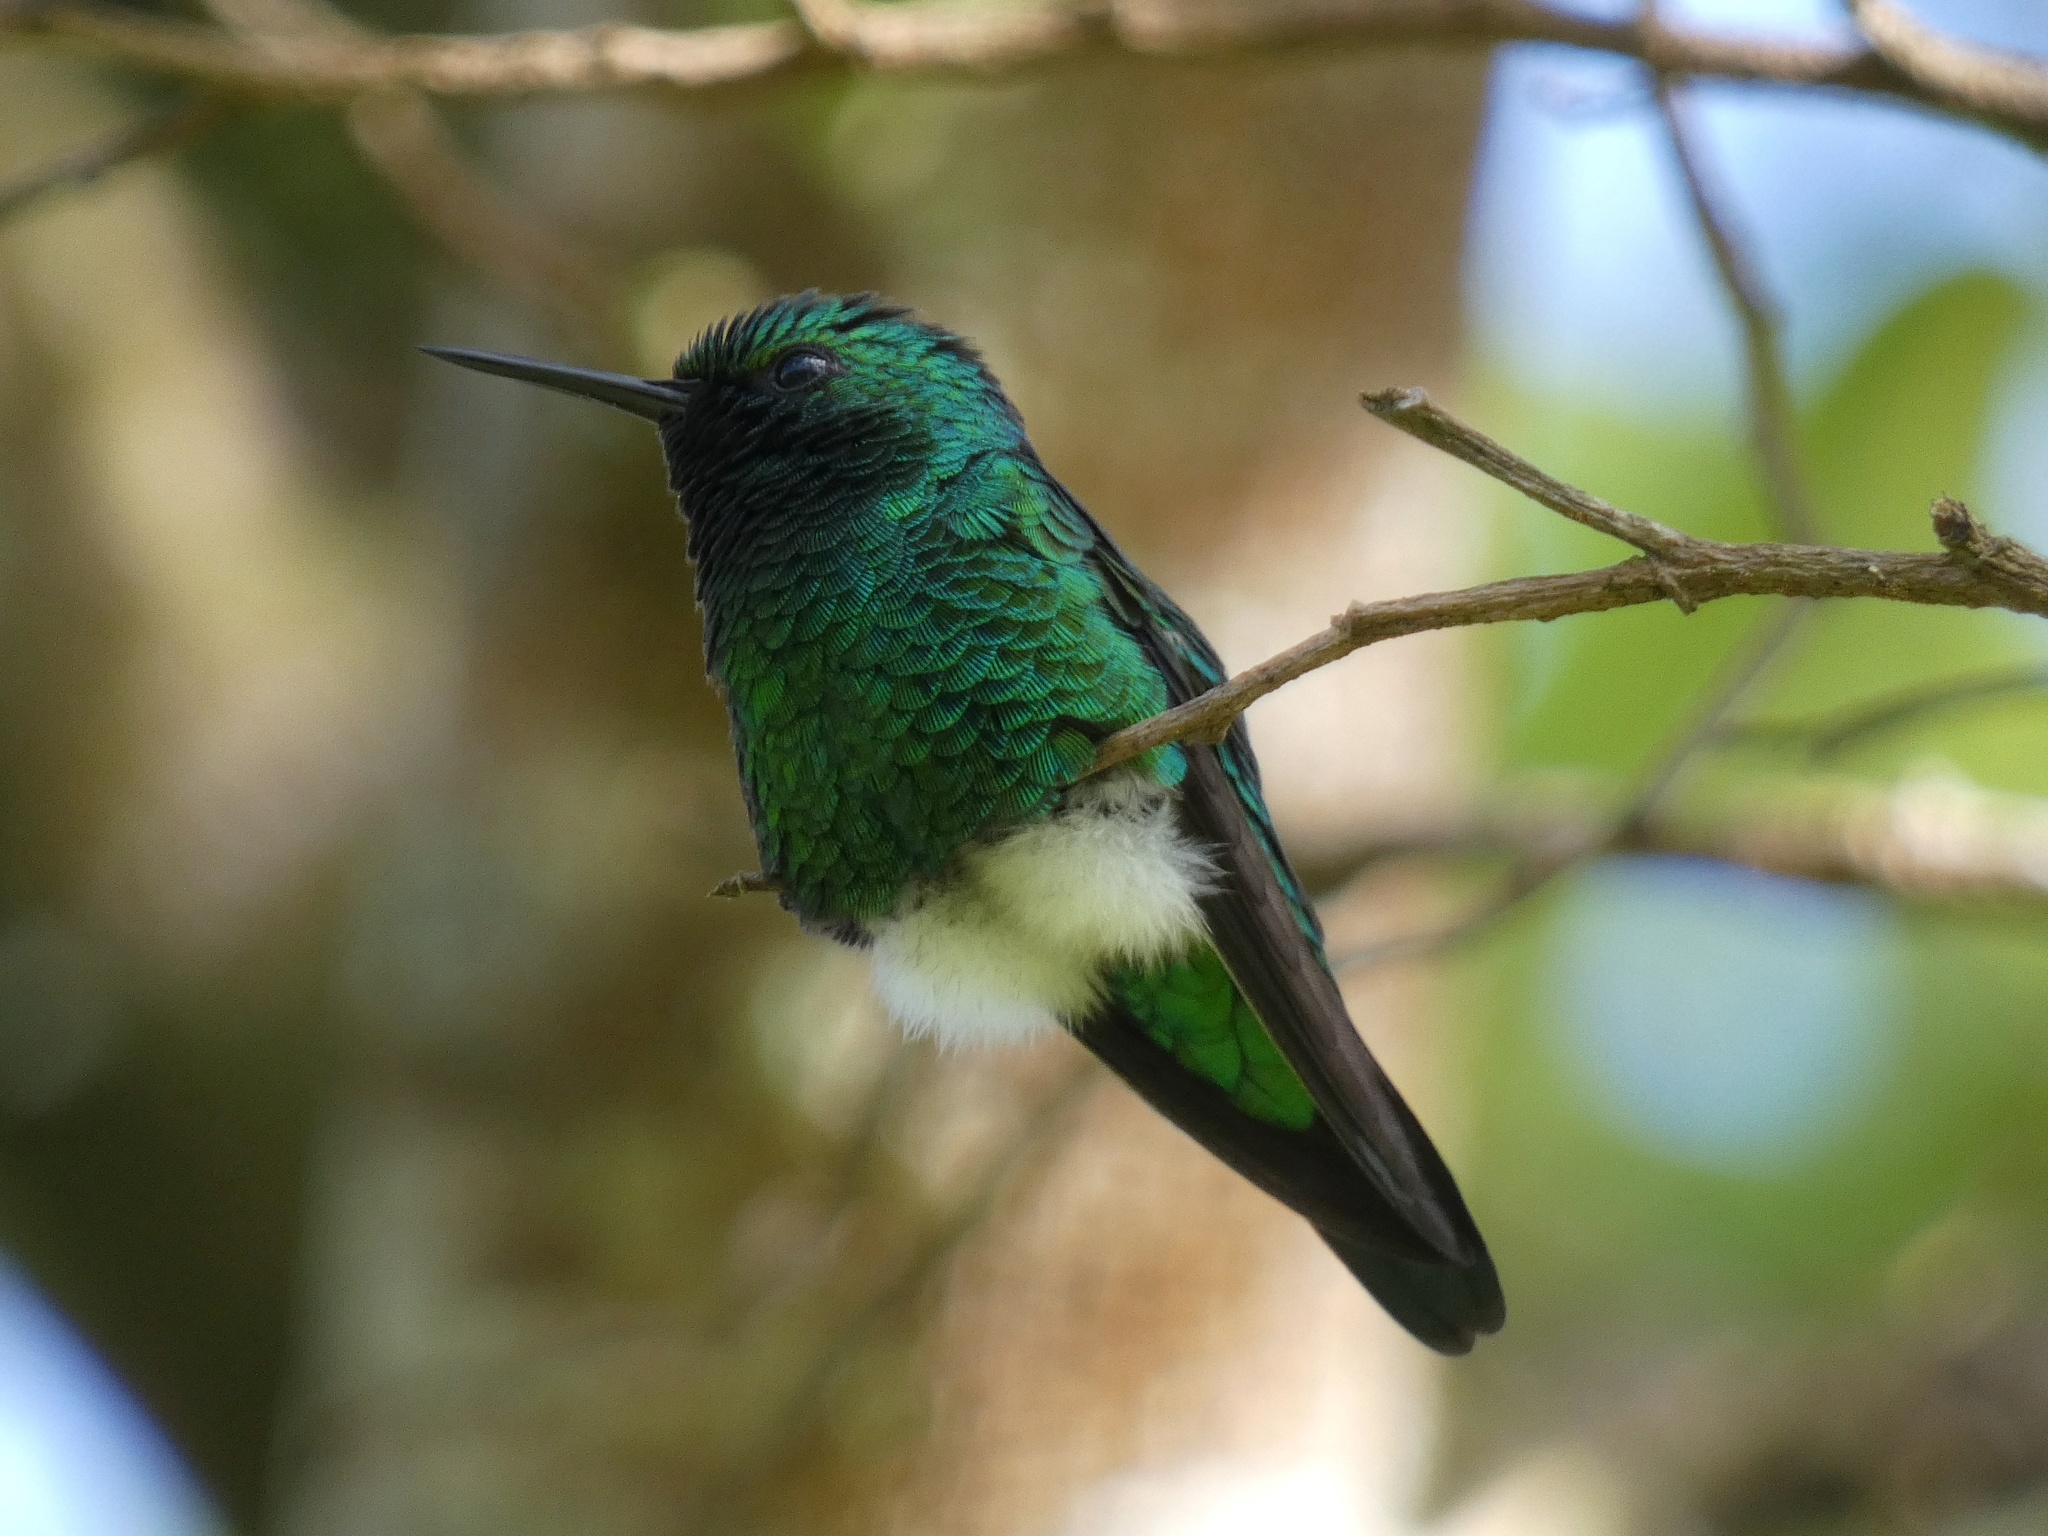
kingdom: Animalia
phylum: Chordata
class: Aves
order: Apodiformes
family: Trochilidae
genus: Chlorostilbon
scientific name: Chlorostilbon assimilis
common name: Garden emerald
